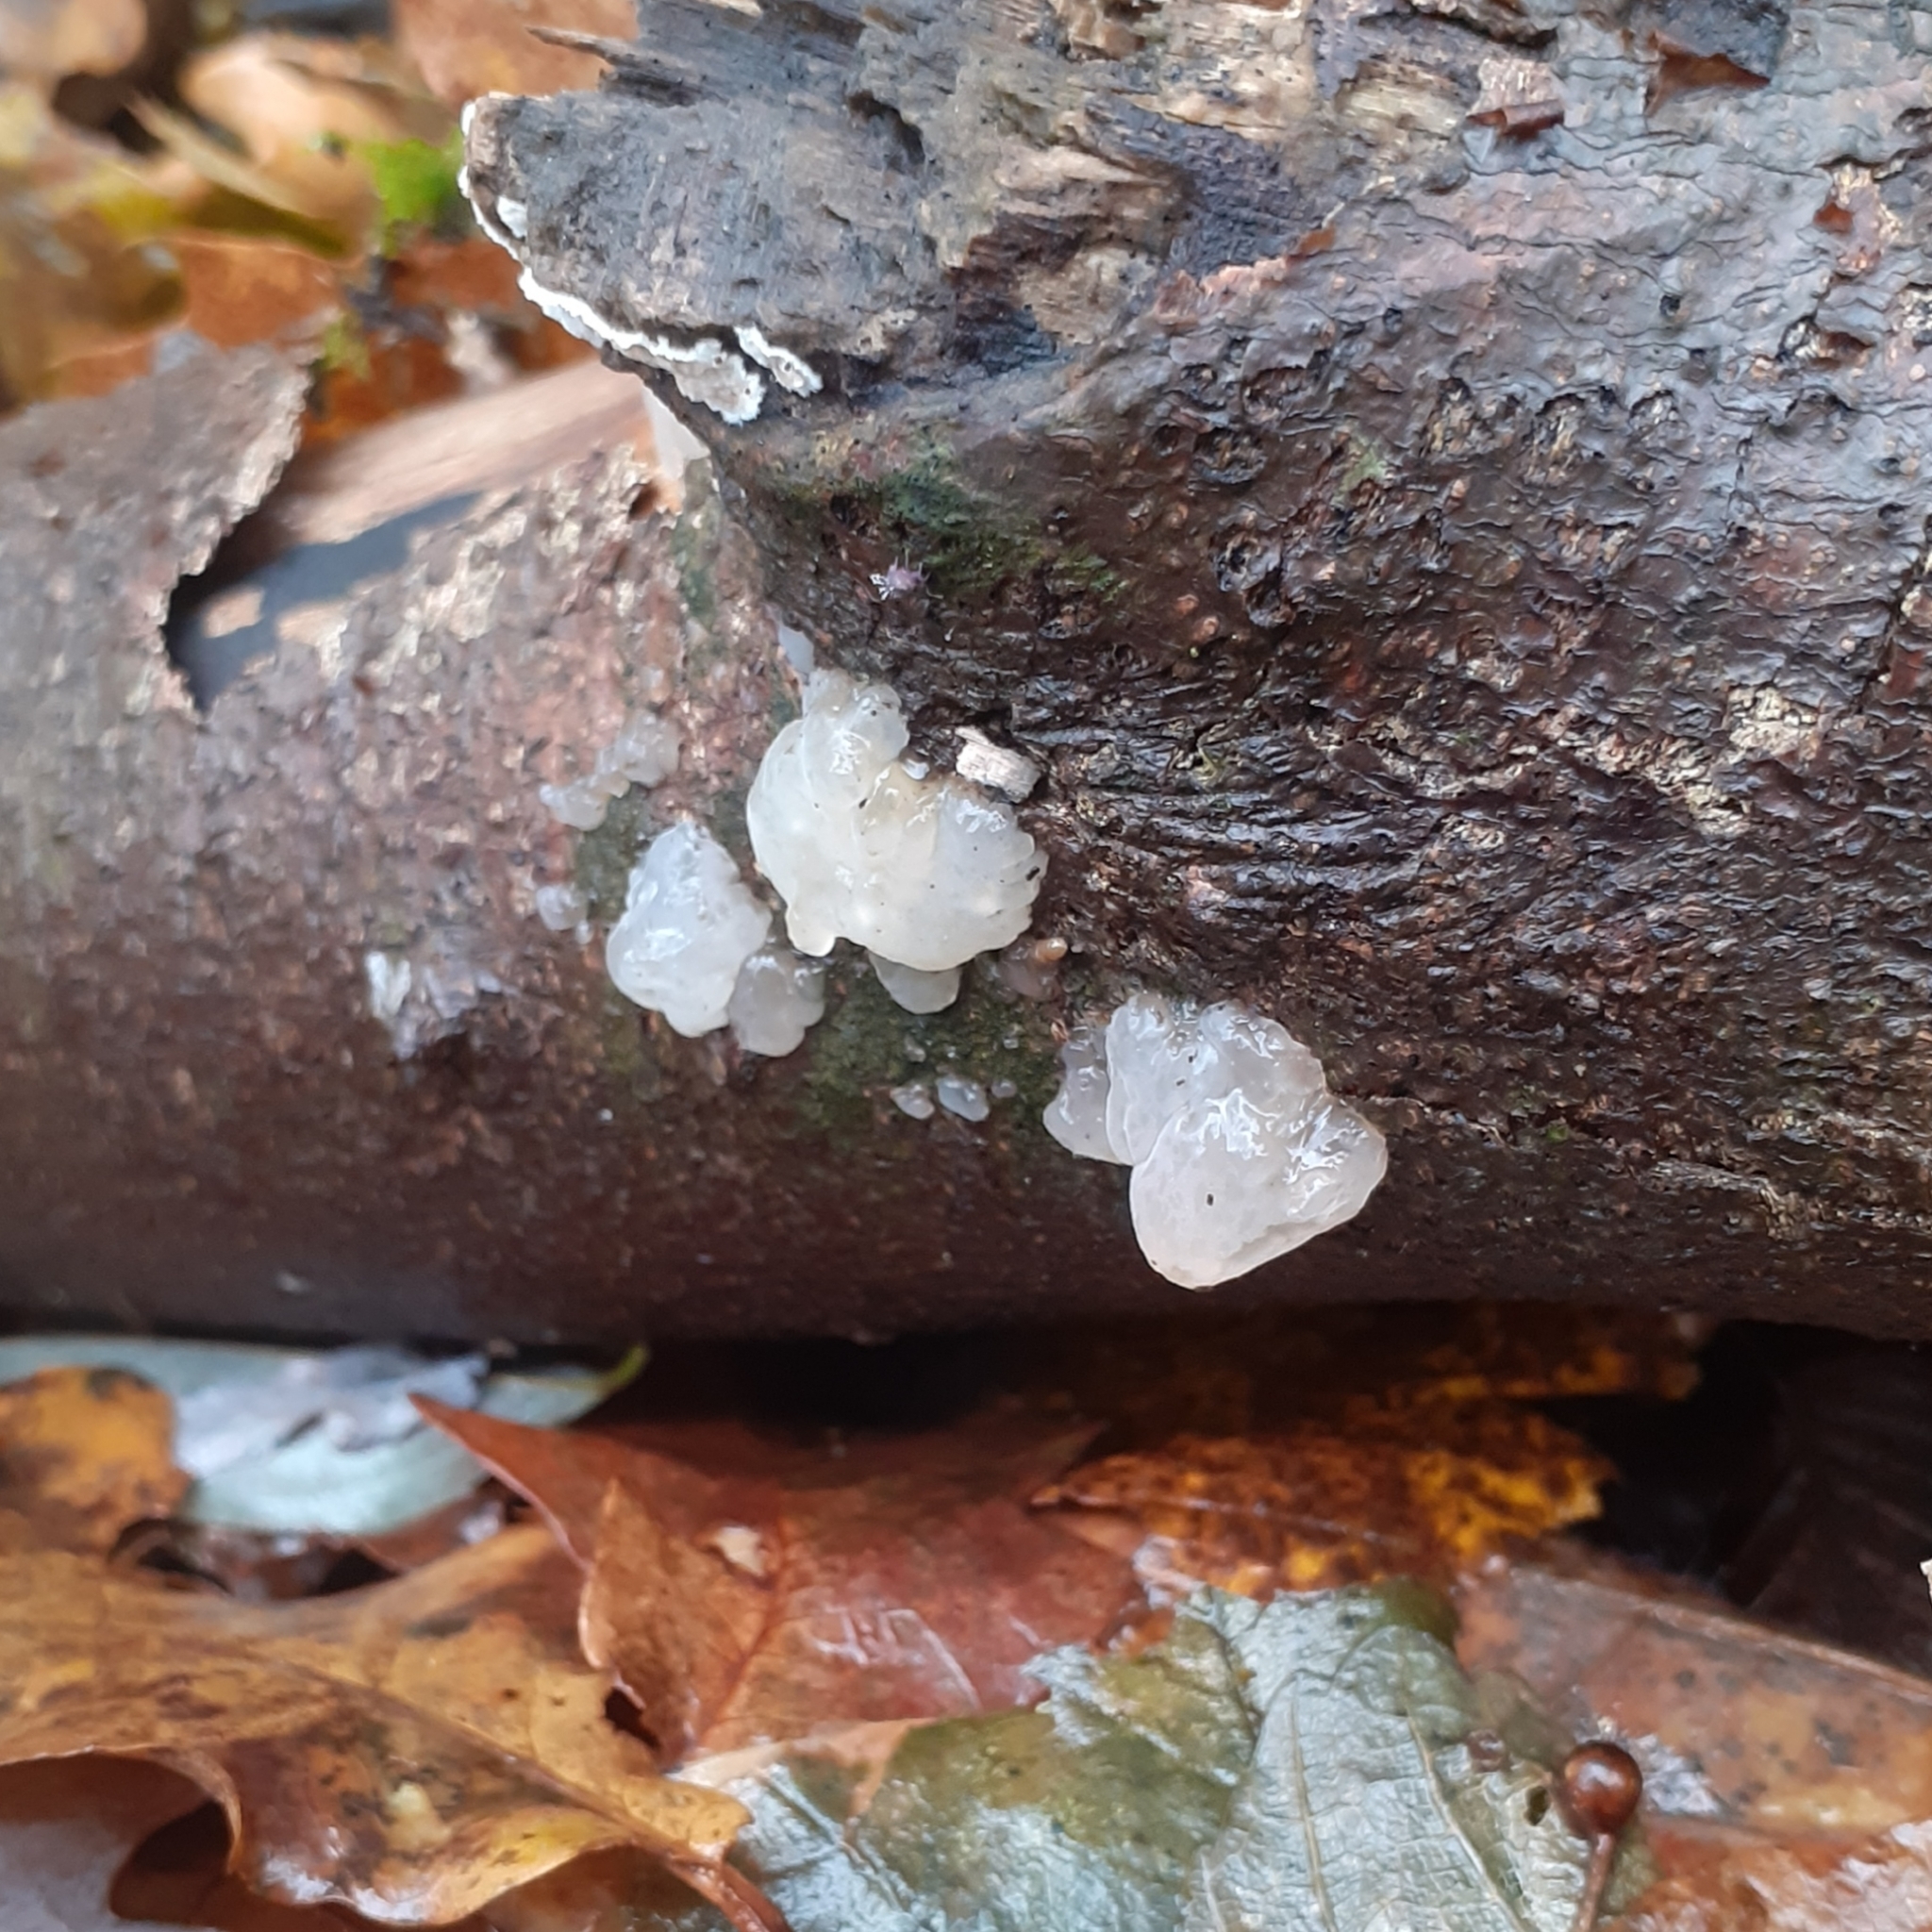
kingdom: Fungi
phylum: Basidiomycota
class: Agaricomycetes
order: Auriculariales
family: Hyaloriaceae
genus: Myxarium
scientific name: Myxarium nucleatum
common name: Crystal brain fungus
